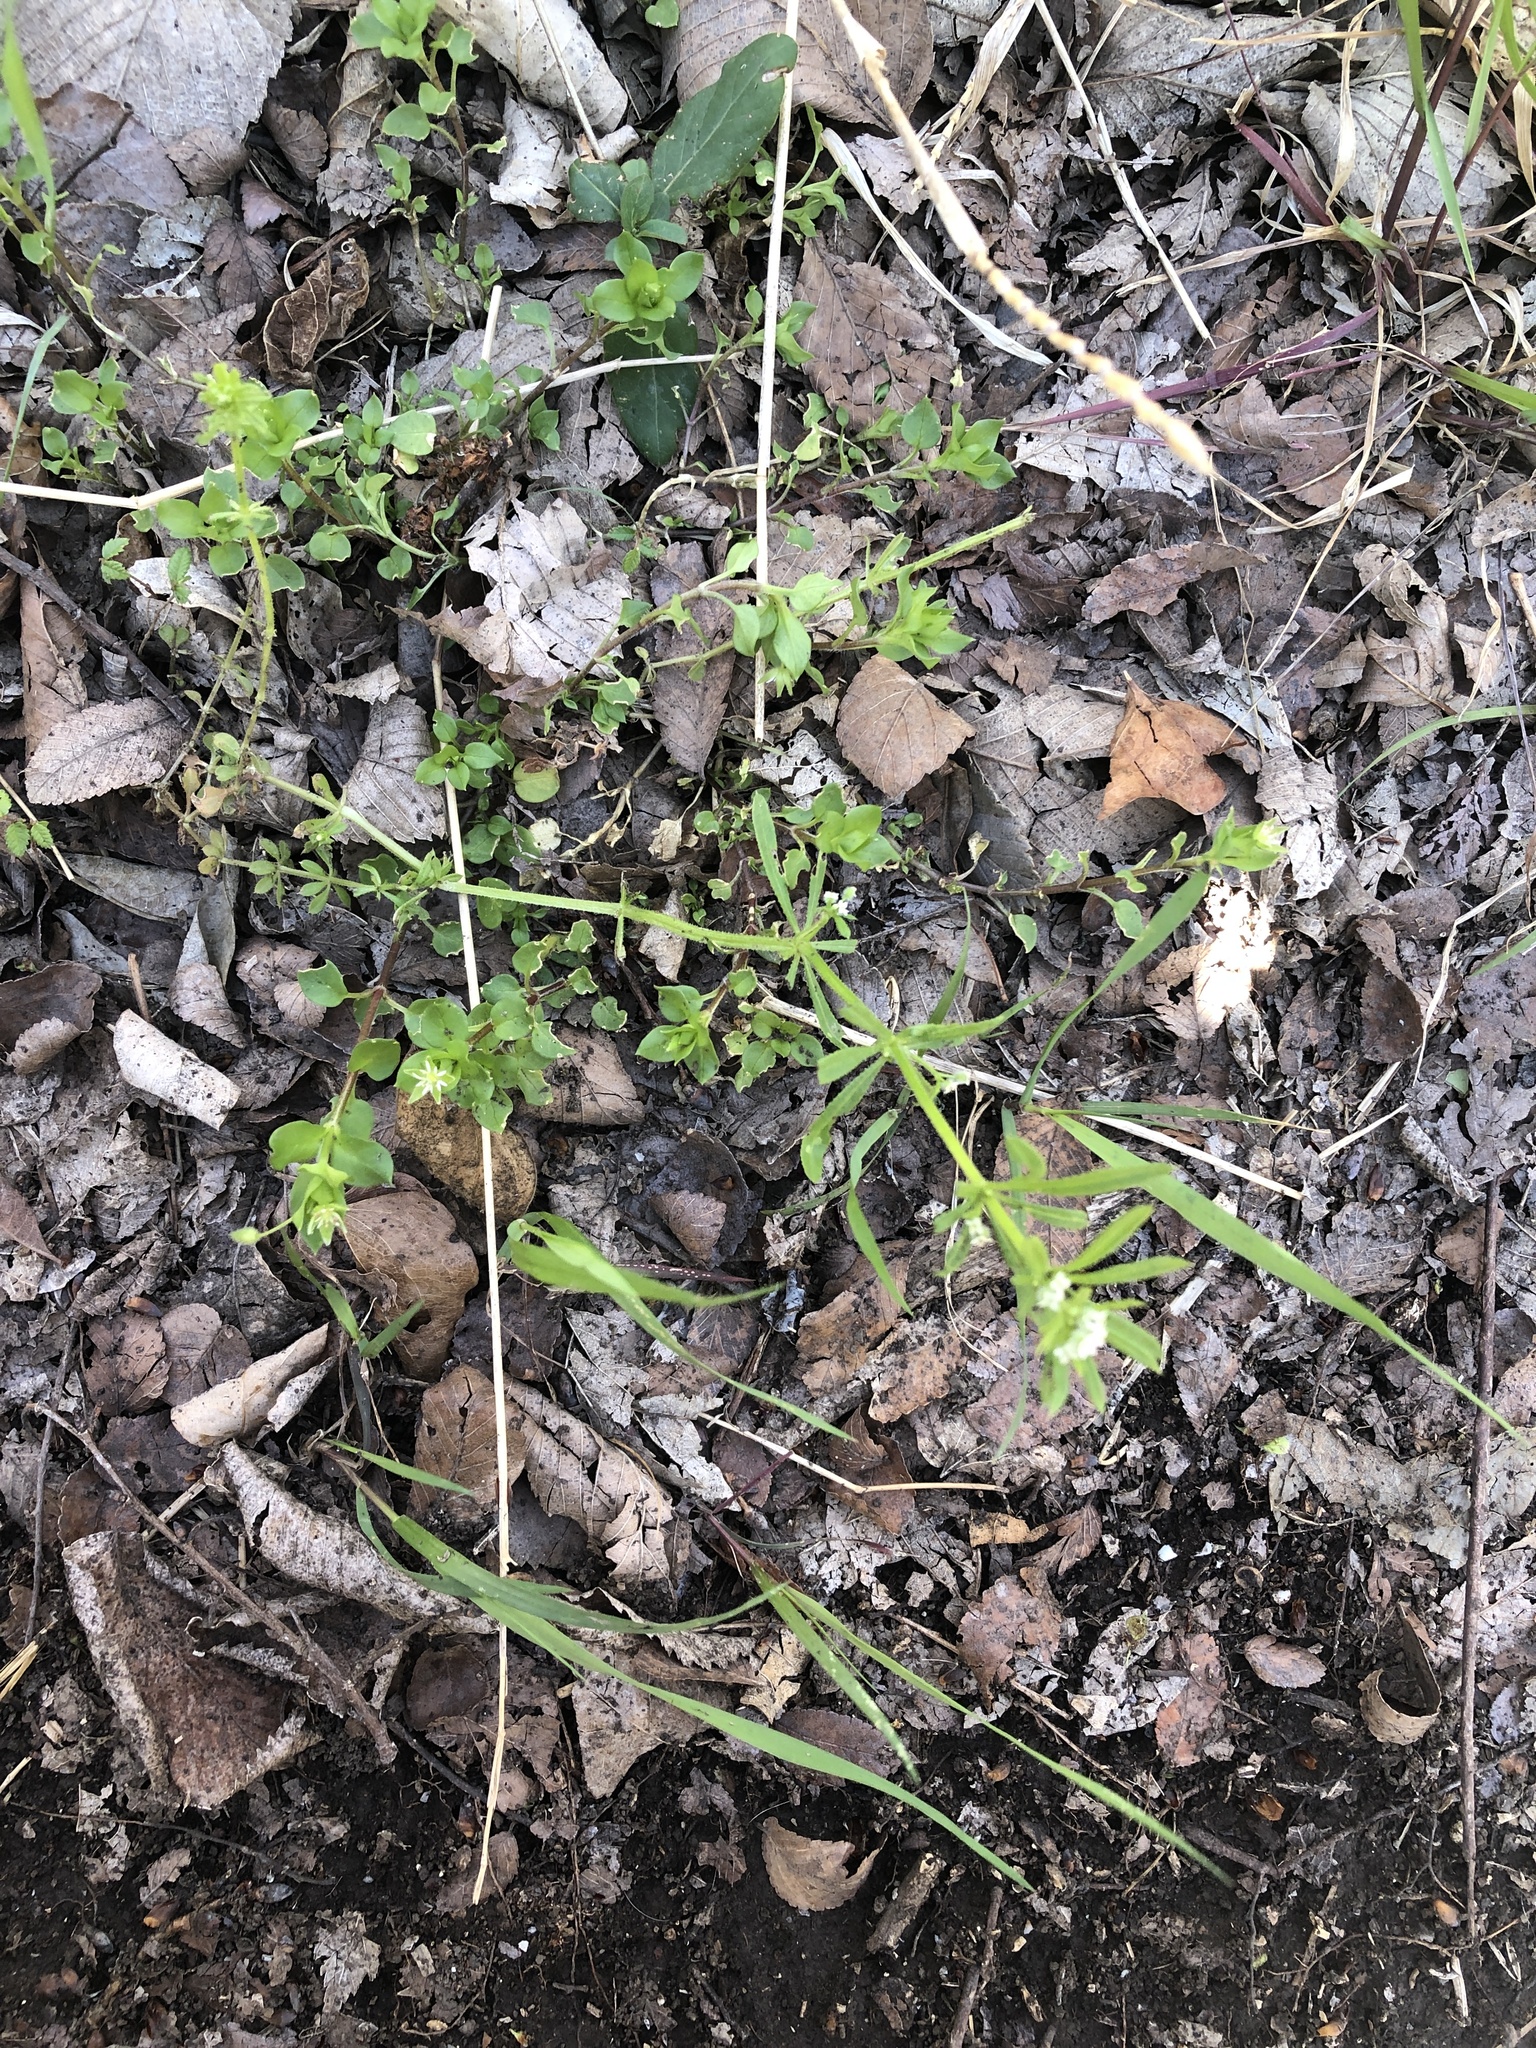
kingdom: Plantae
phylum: Tracheophyta
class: Magnoliopsida
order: Gentianales
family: Rubiaceae
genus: Galium
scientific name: Galium aparine
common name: Cleavers
